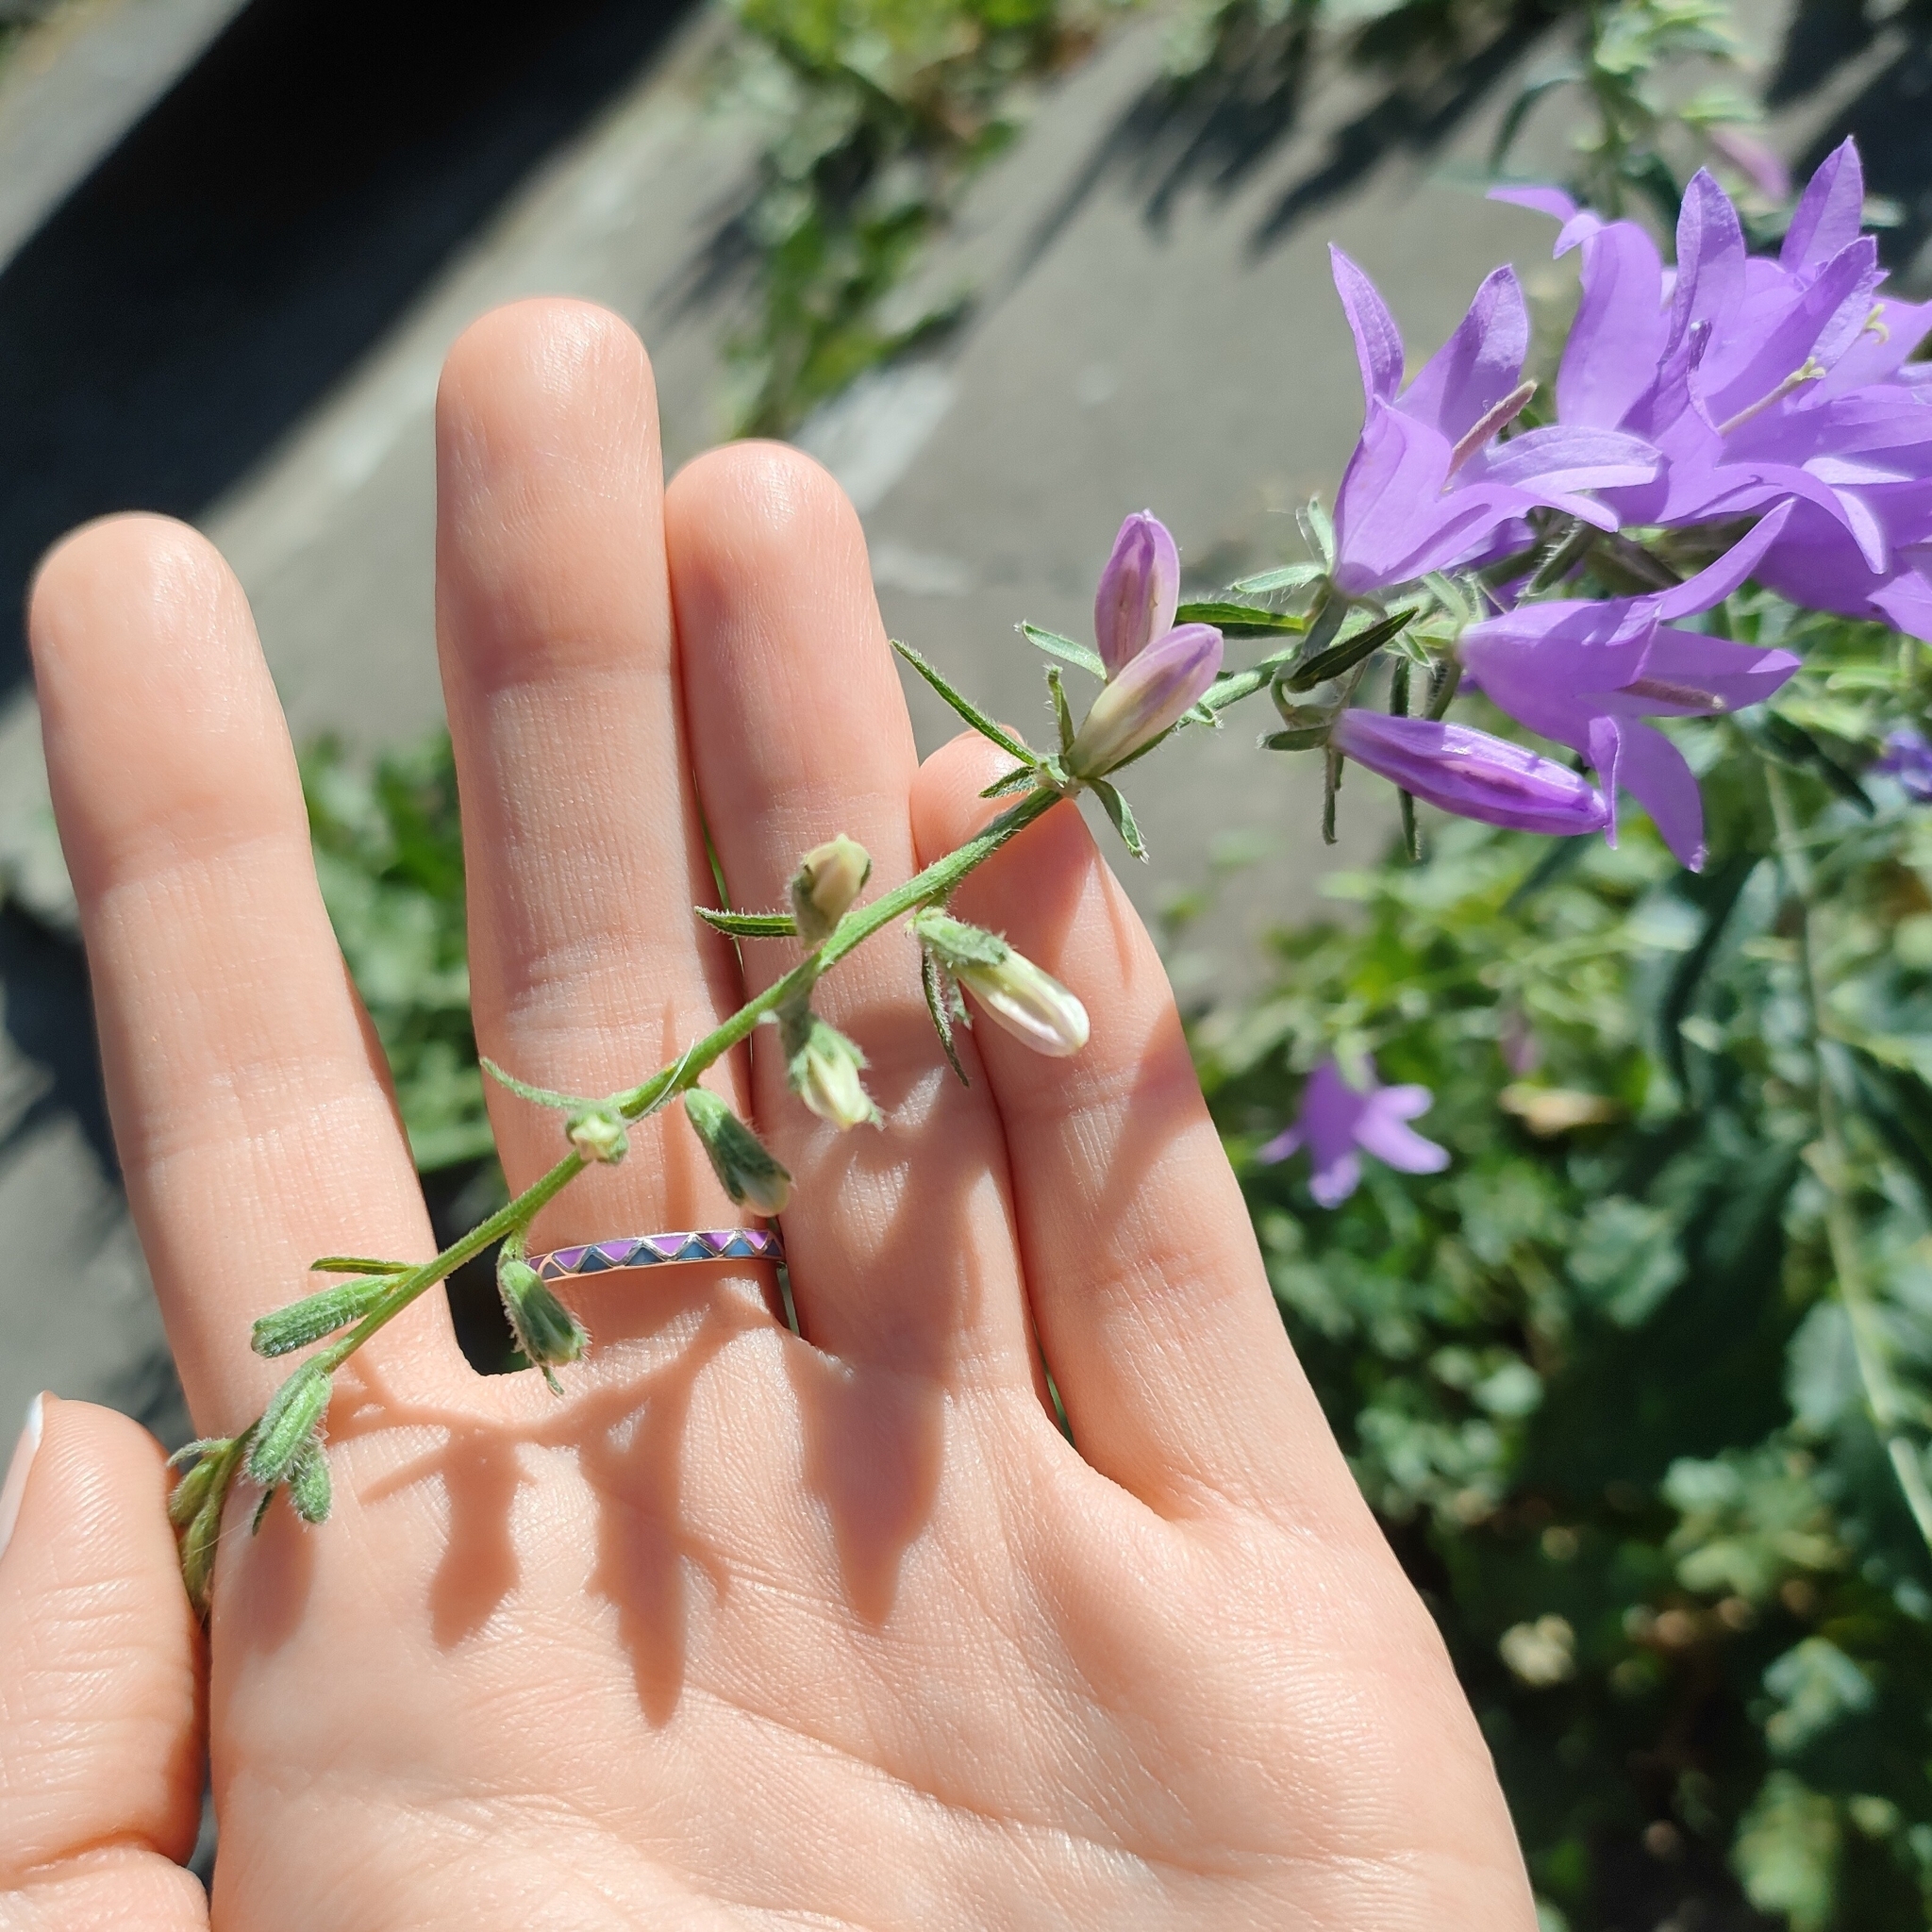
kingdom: Plantae
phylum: Tracheophyta
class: Magnoliopsida
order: Asterales
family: Campanulaceae
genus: Campanula
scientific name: Campanula rapunculoides
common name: Creeping bellflower
